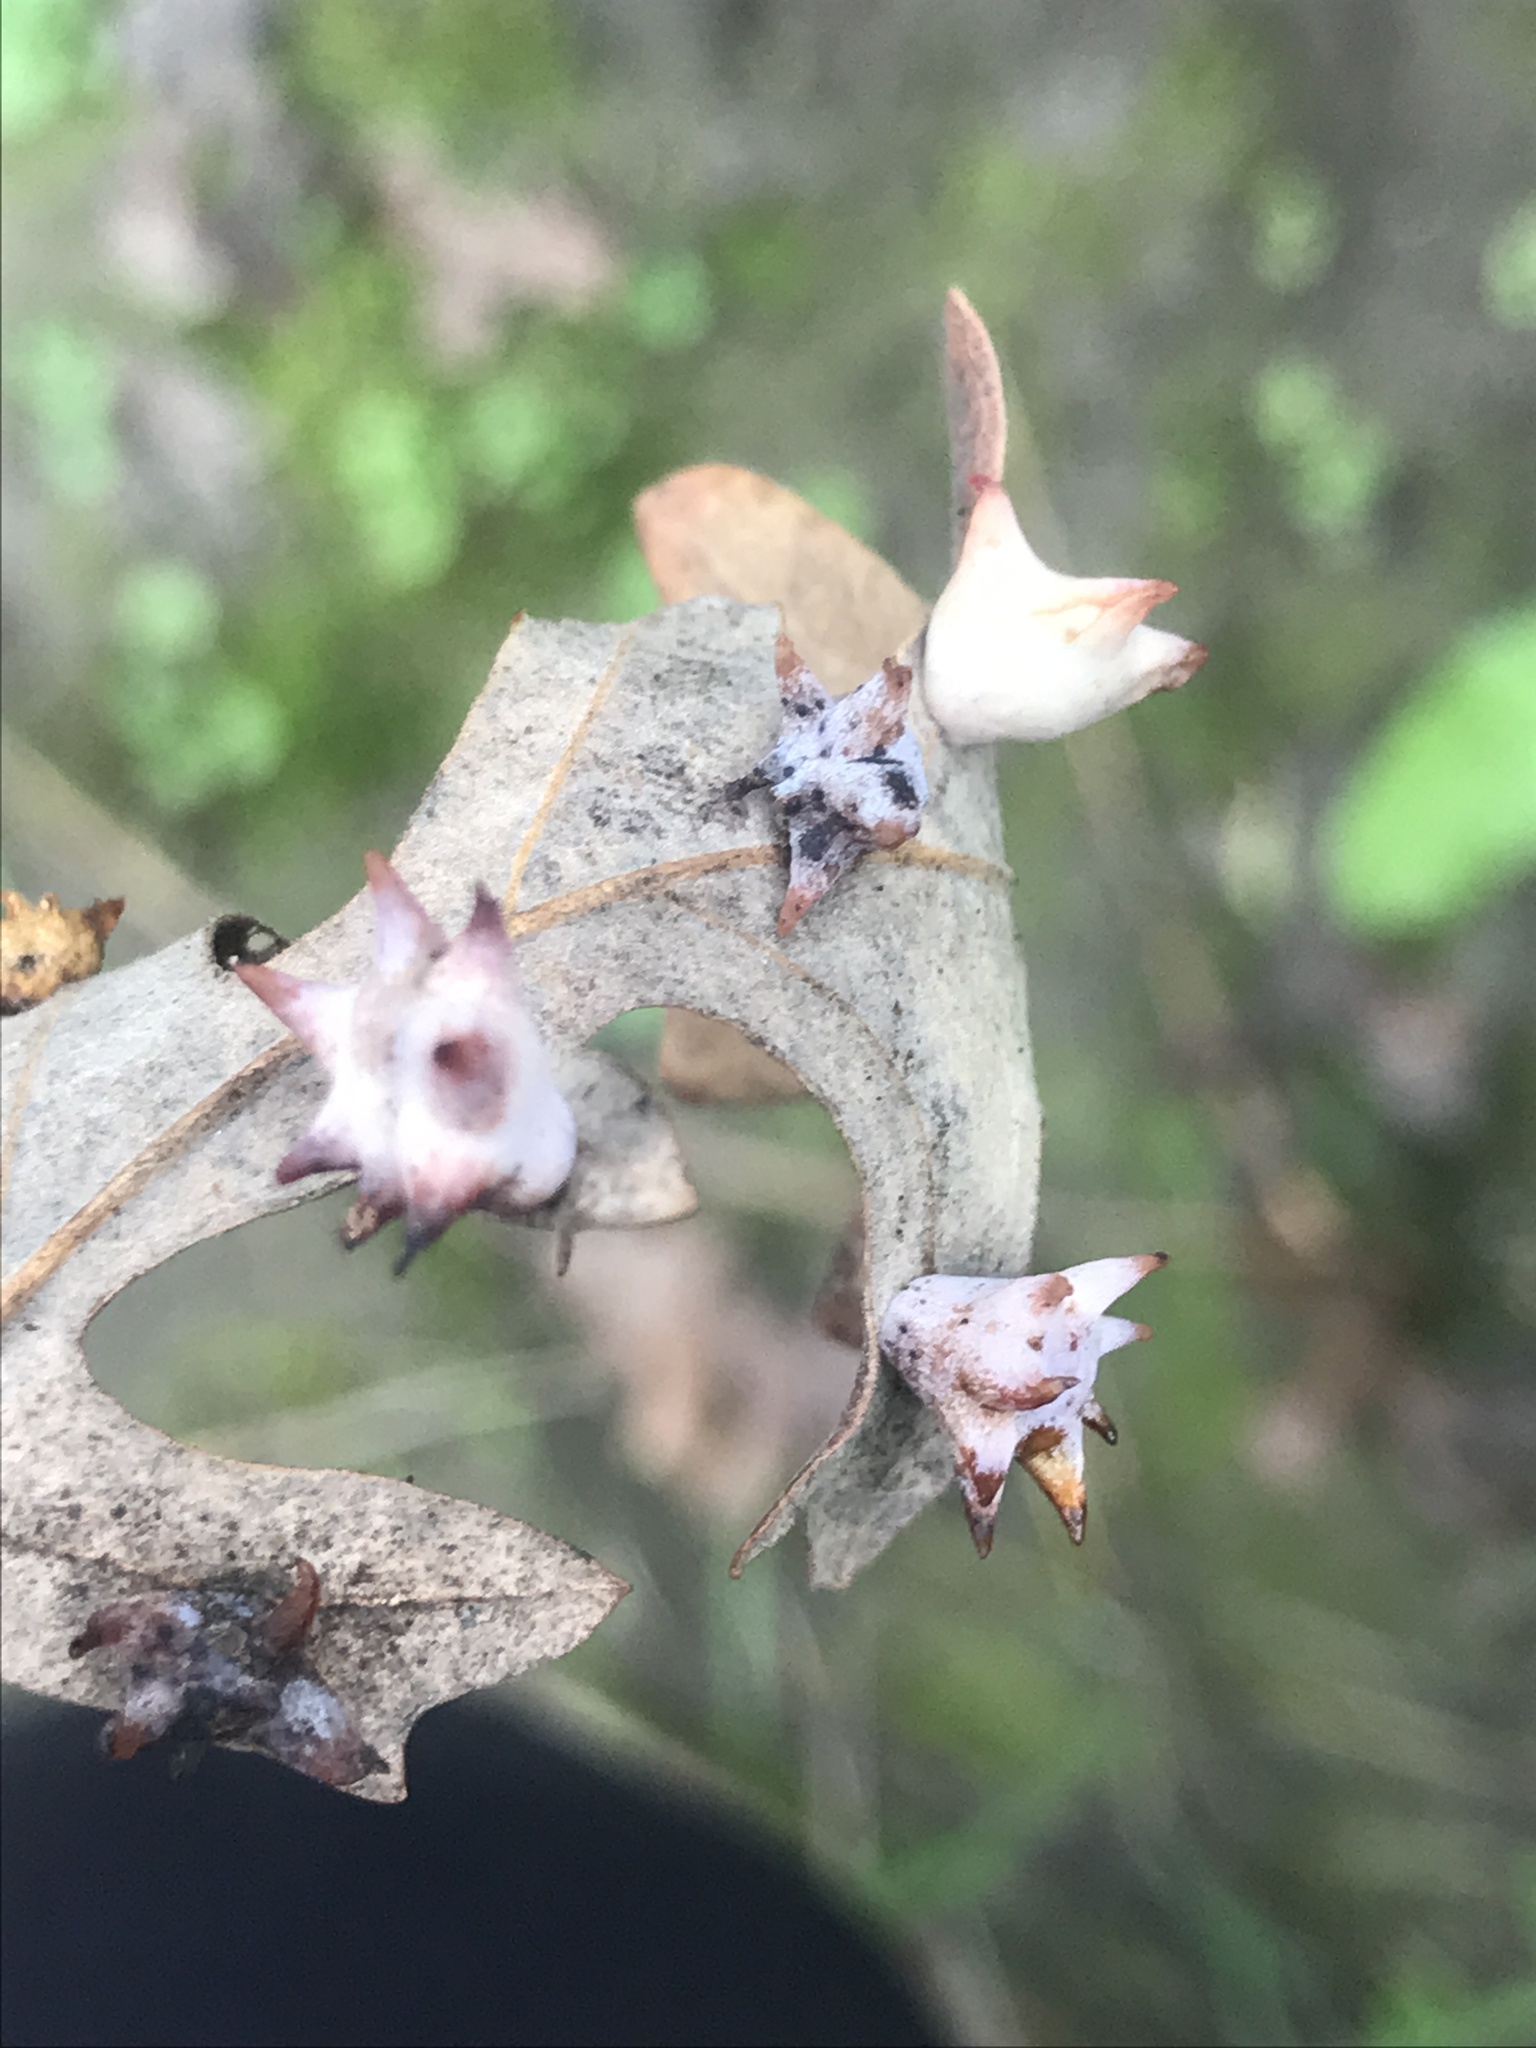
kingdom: Animalia
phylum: Arthropoda
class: Insecta
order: Hymenoptera
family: Cynipidae
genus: Cynips
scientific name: Cynips douglasi
